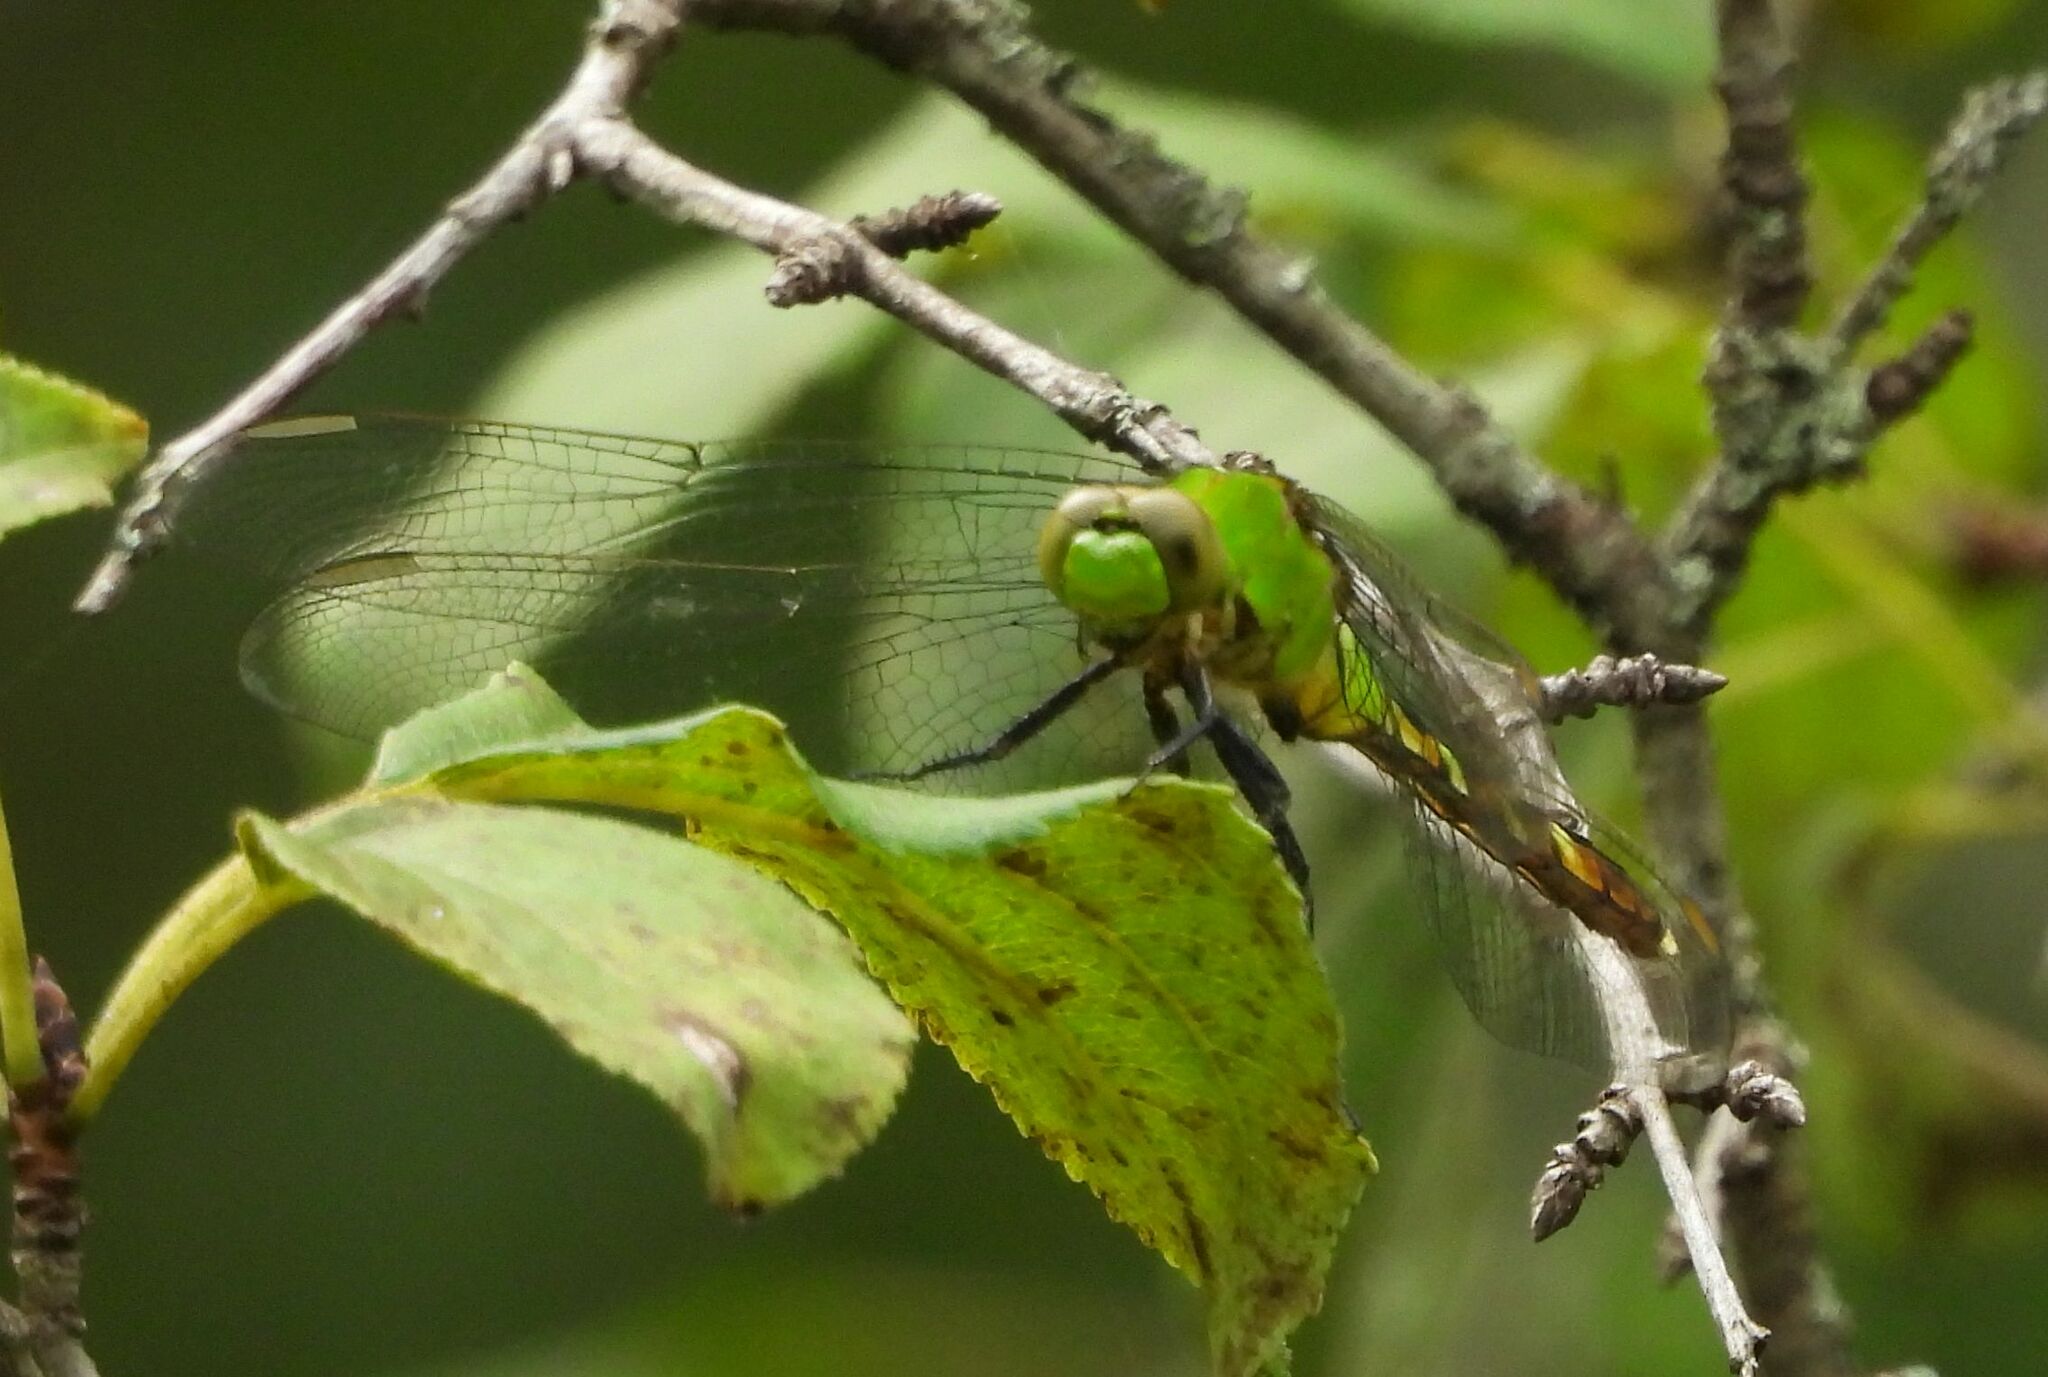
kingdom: Animalia
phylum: Arthropoda
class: Insecta
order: Odonata
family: Libellulidae
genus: Erythemis
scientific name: Erythemis simplicicollis
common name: Eastern pondhawk
